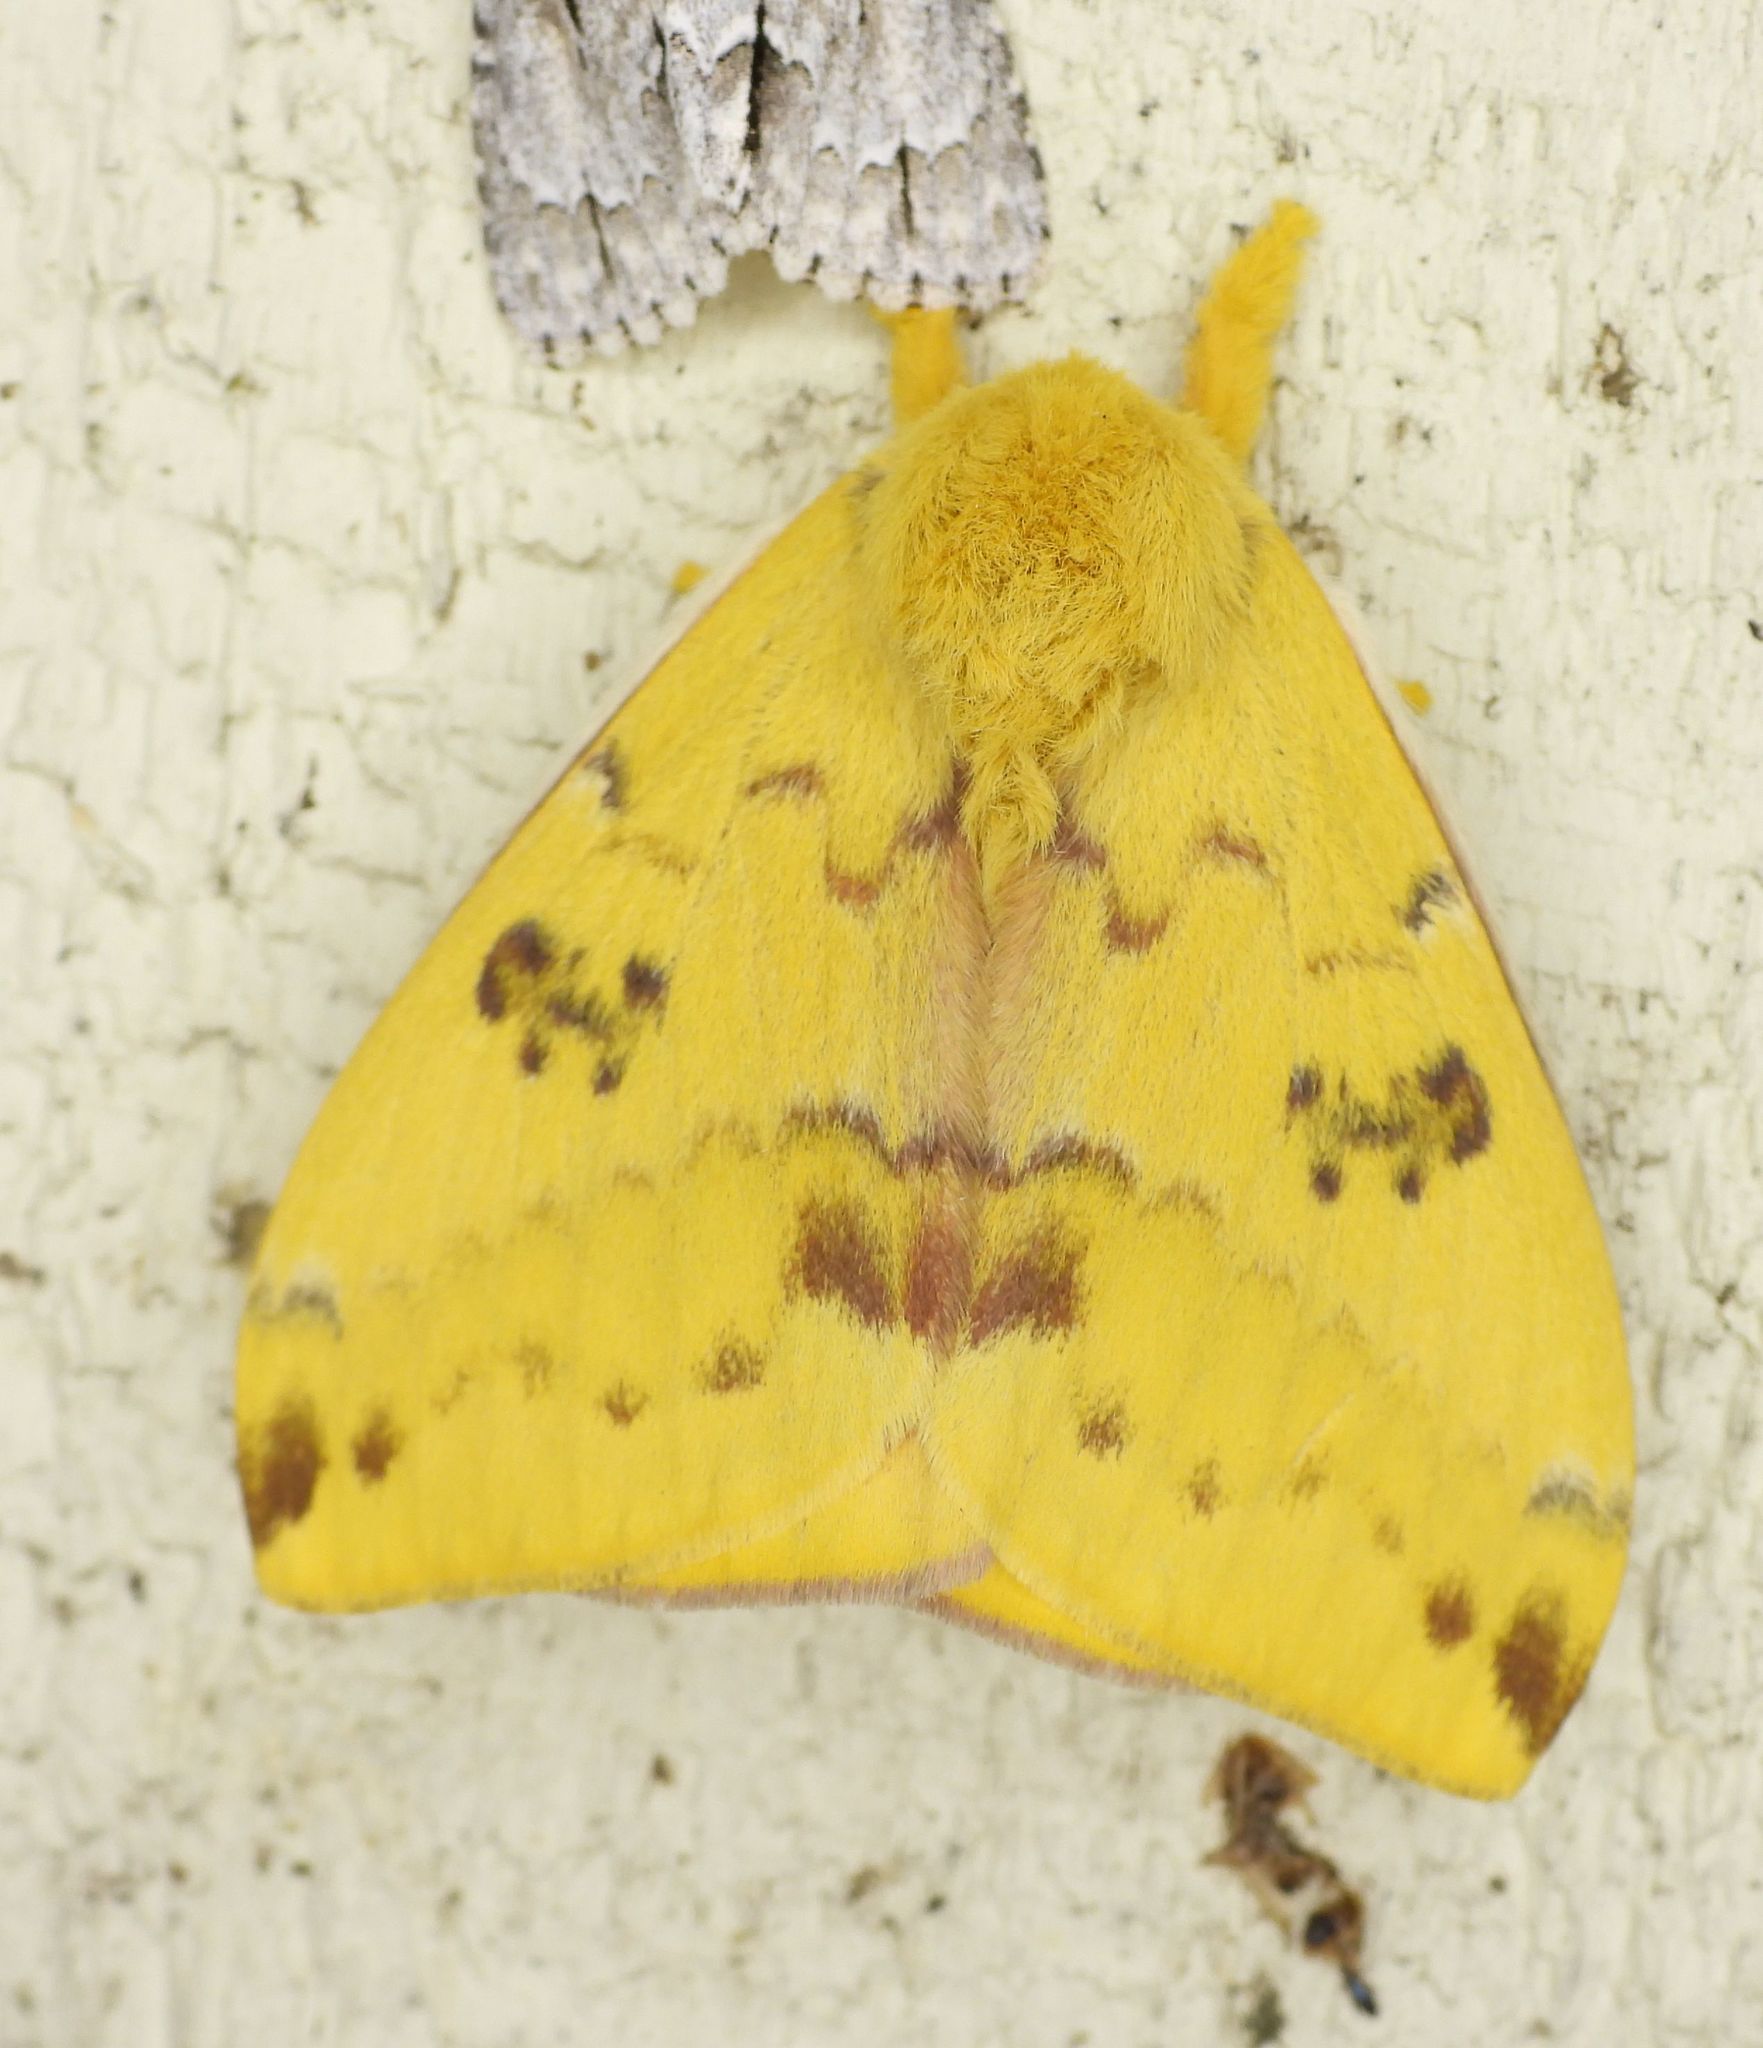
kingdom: Animalia
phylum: Arthropoda
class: Insecta
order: Lepidoptera
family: Saturniidae
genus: Automeris
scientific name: Automeris io
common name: Io moth
